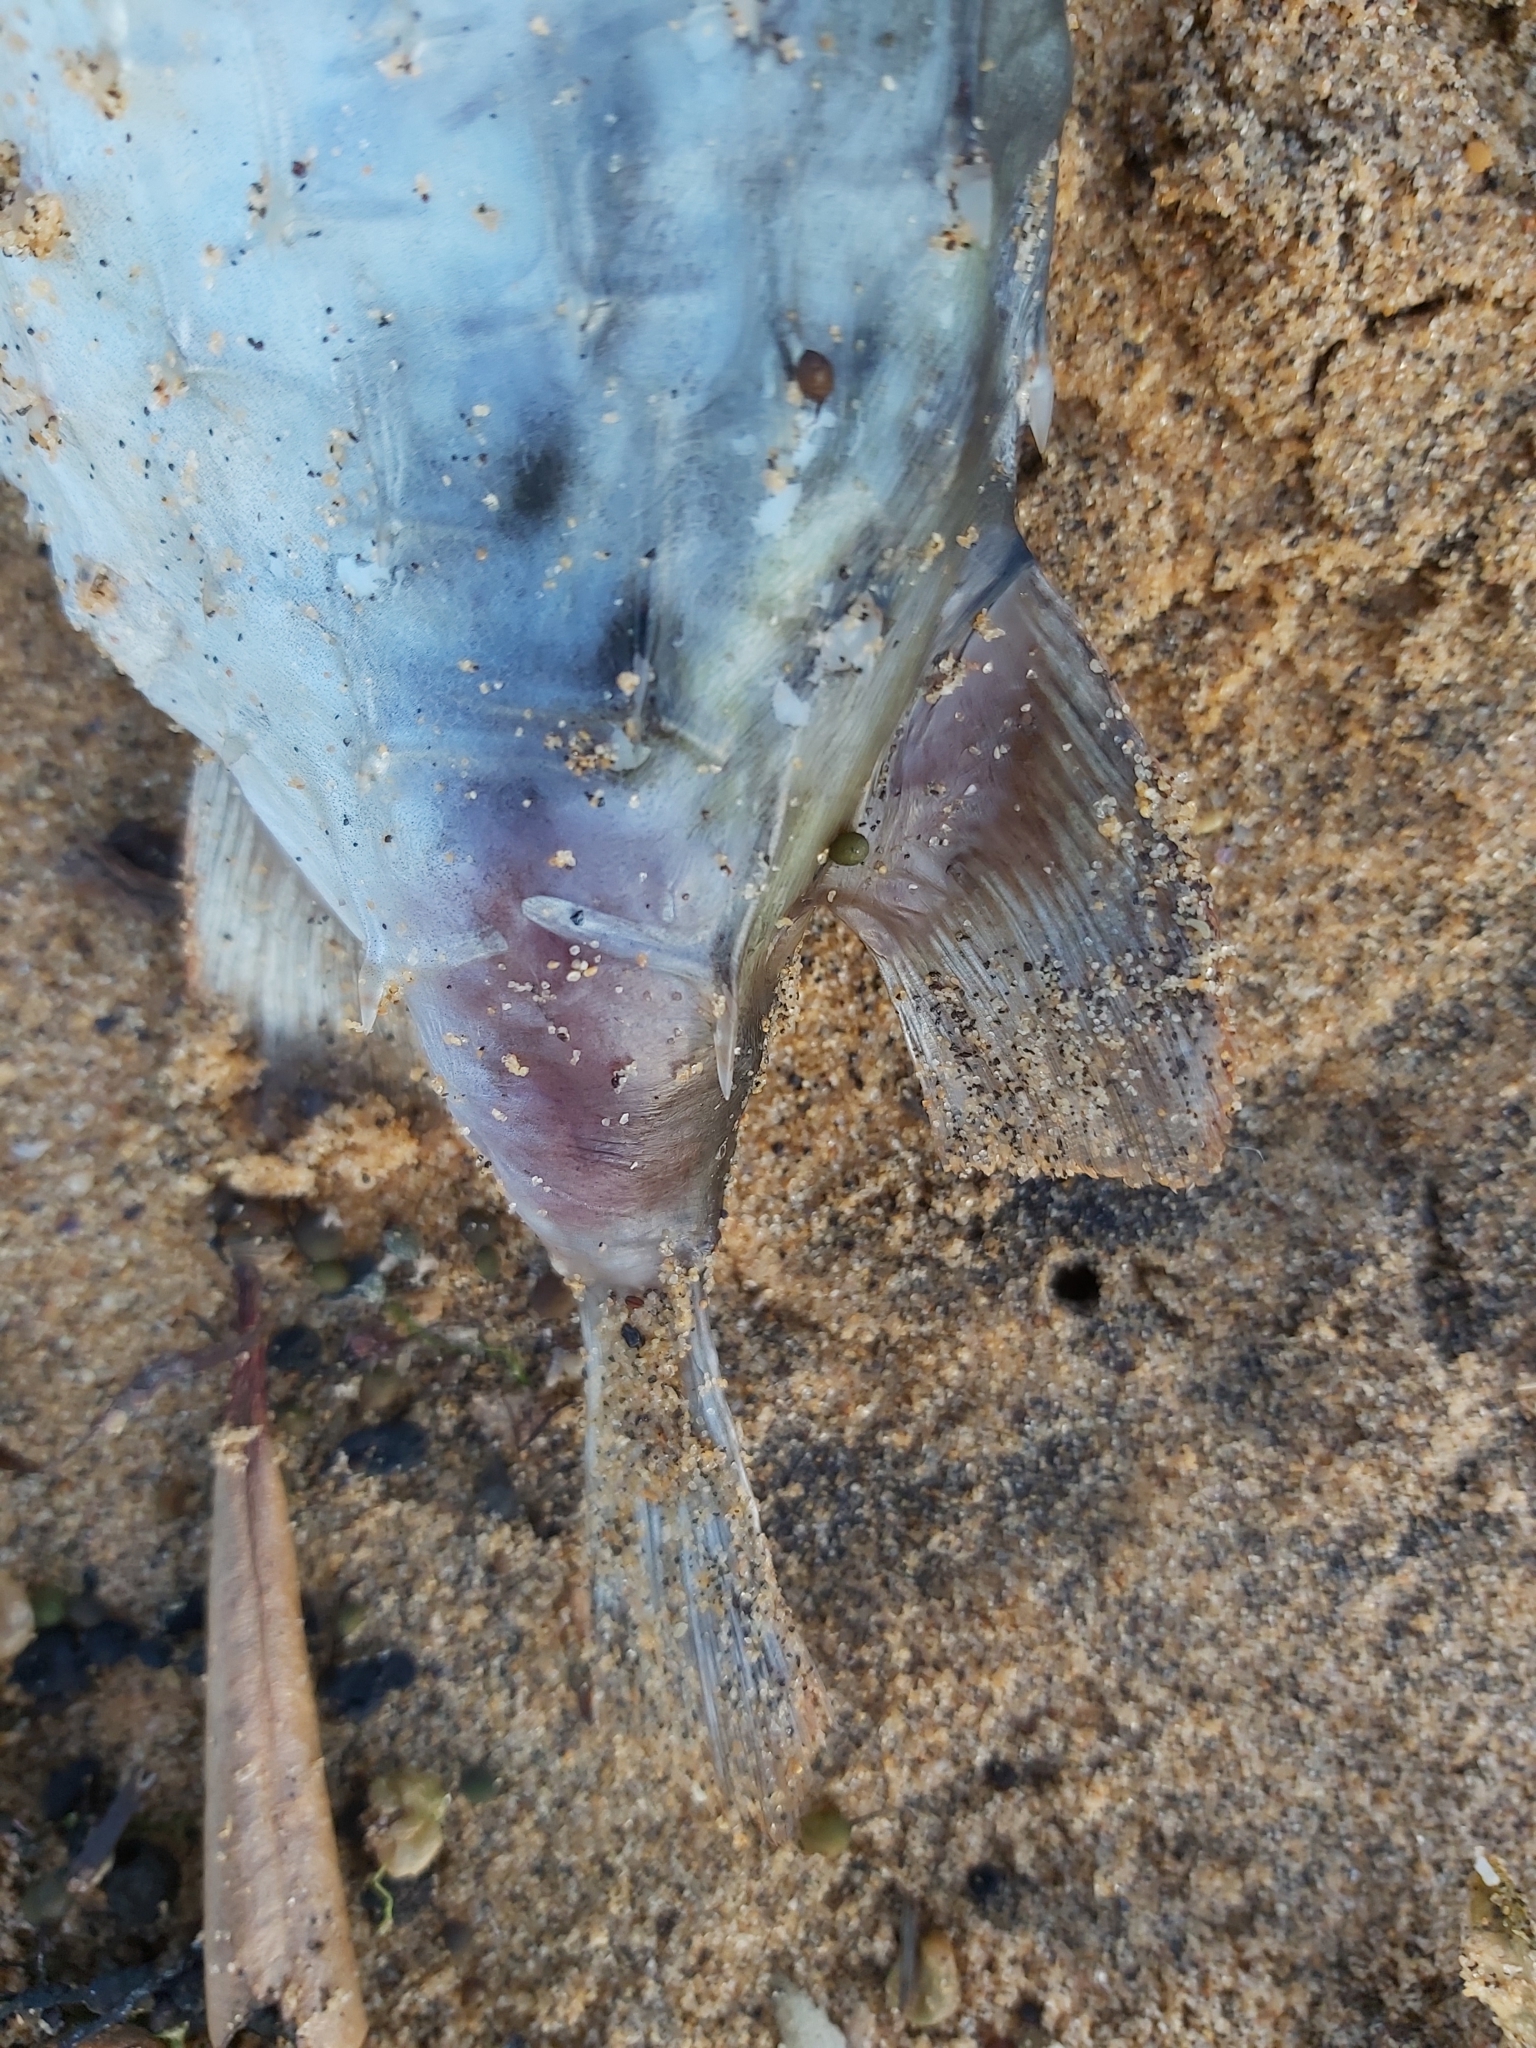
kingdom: Animalia
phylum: Chordata
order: Tetraodontiformes
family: Diodontidae
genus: Allomycterus
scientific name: Allomycterus pilatus
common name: No common name
